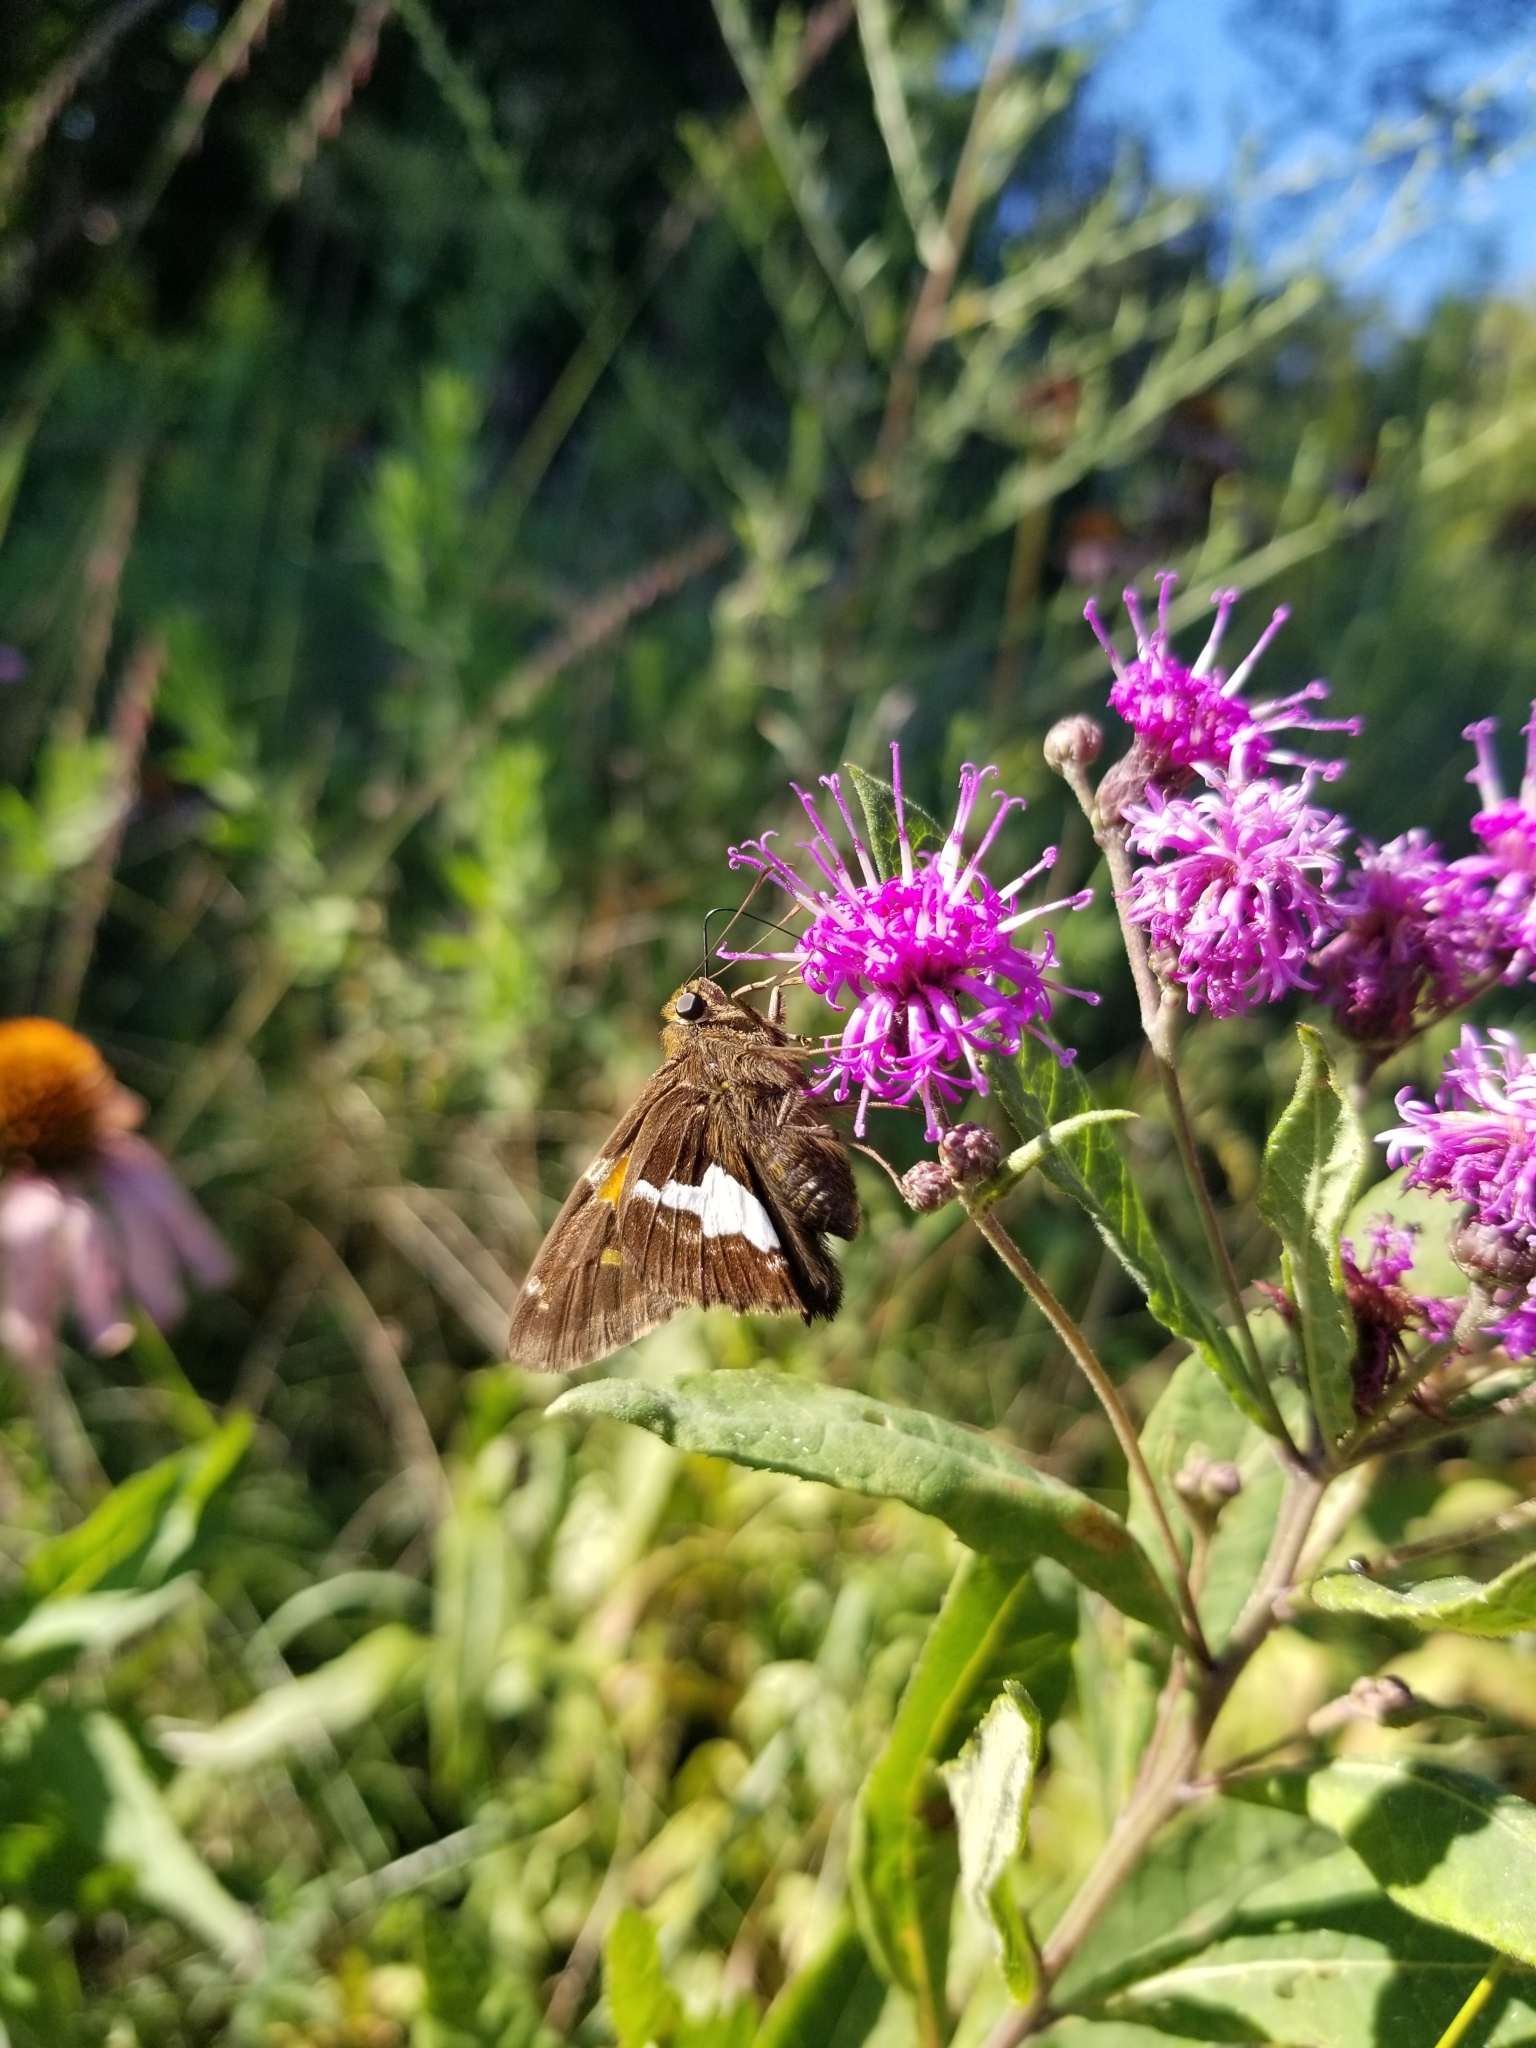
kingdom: Animalia
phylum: Arthropoda
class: Insecta
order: Lepidoptera
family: Hesperiidae
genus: Epargyreus
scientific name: Epargyreus clarus
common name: Silver-spotted skipper
